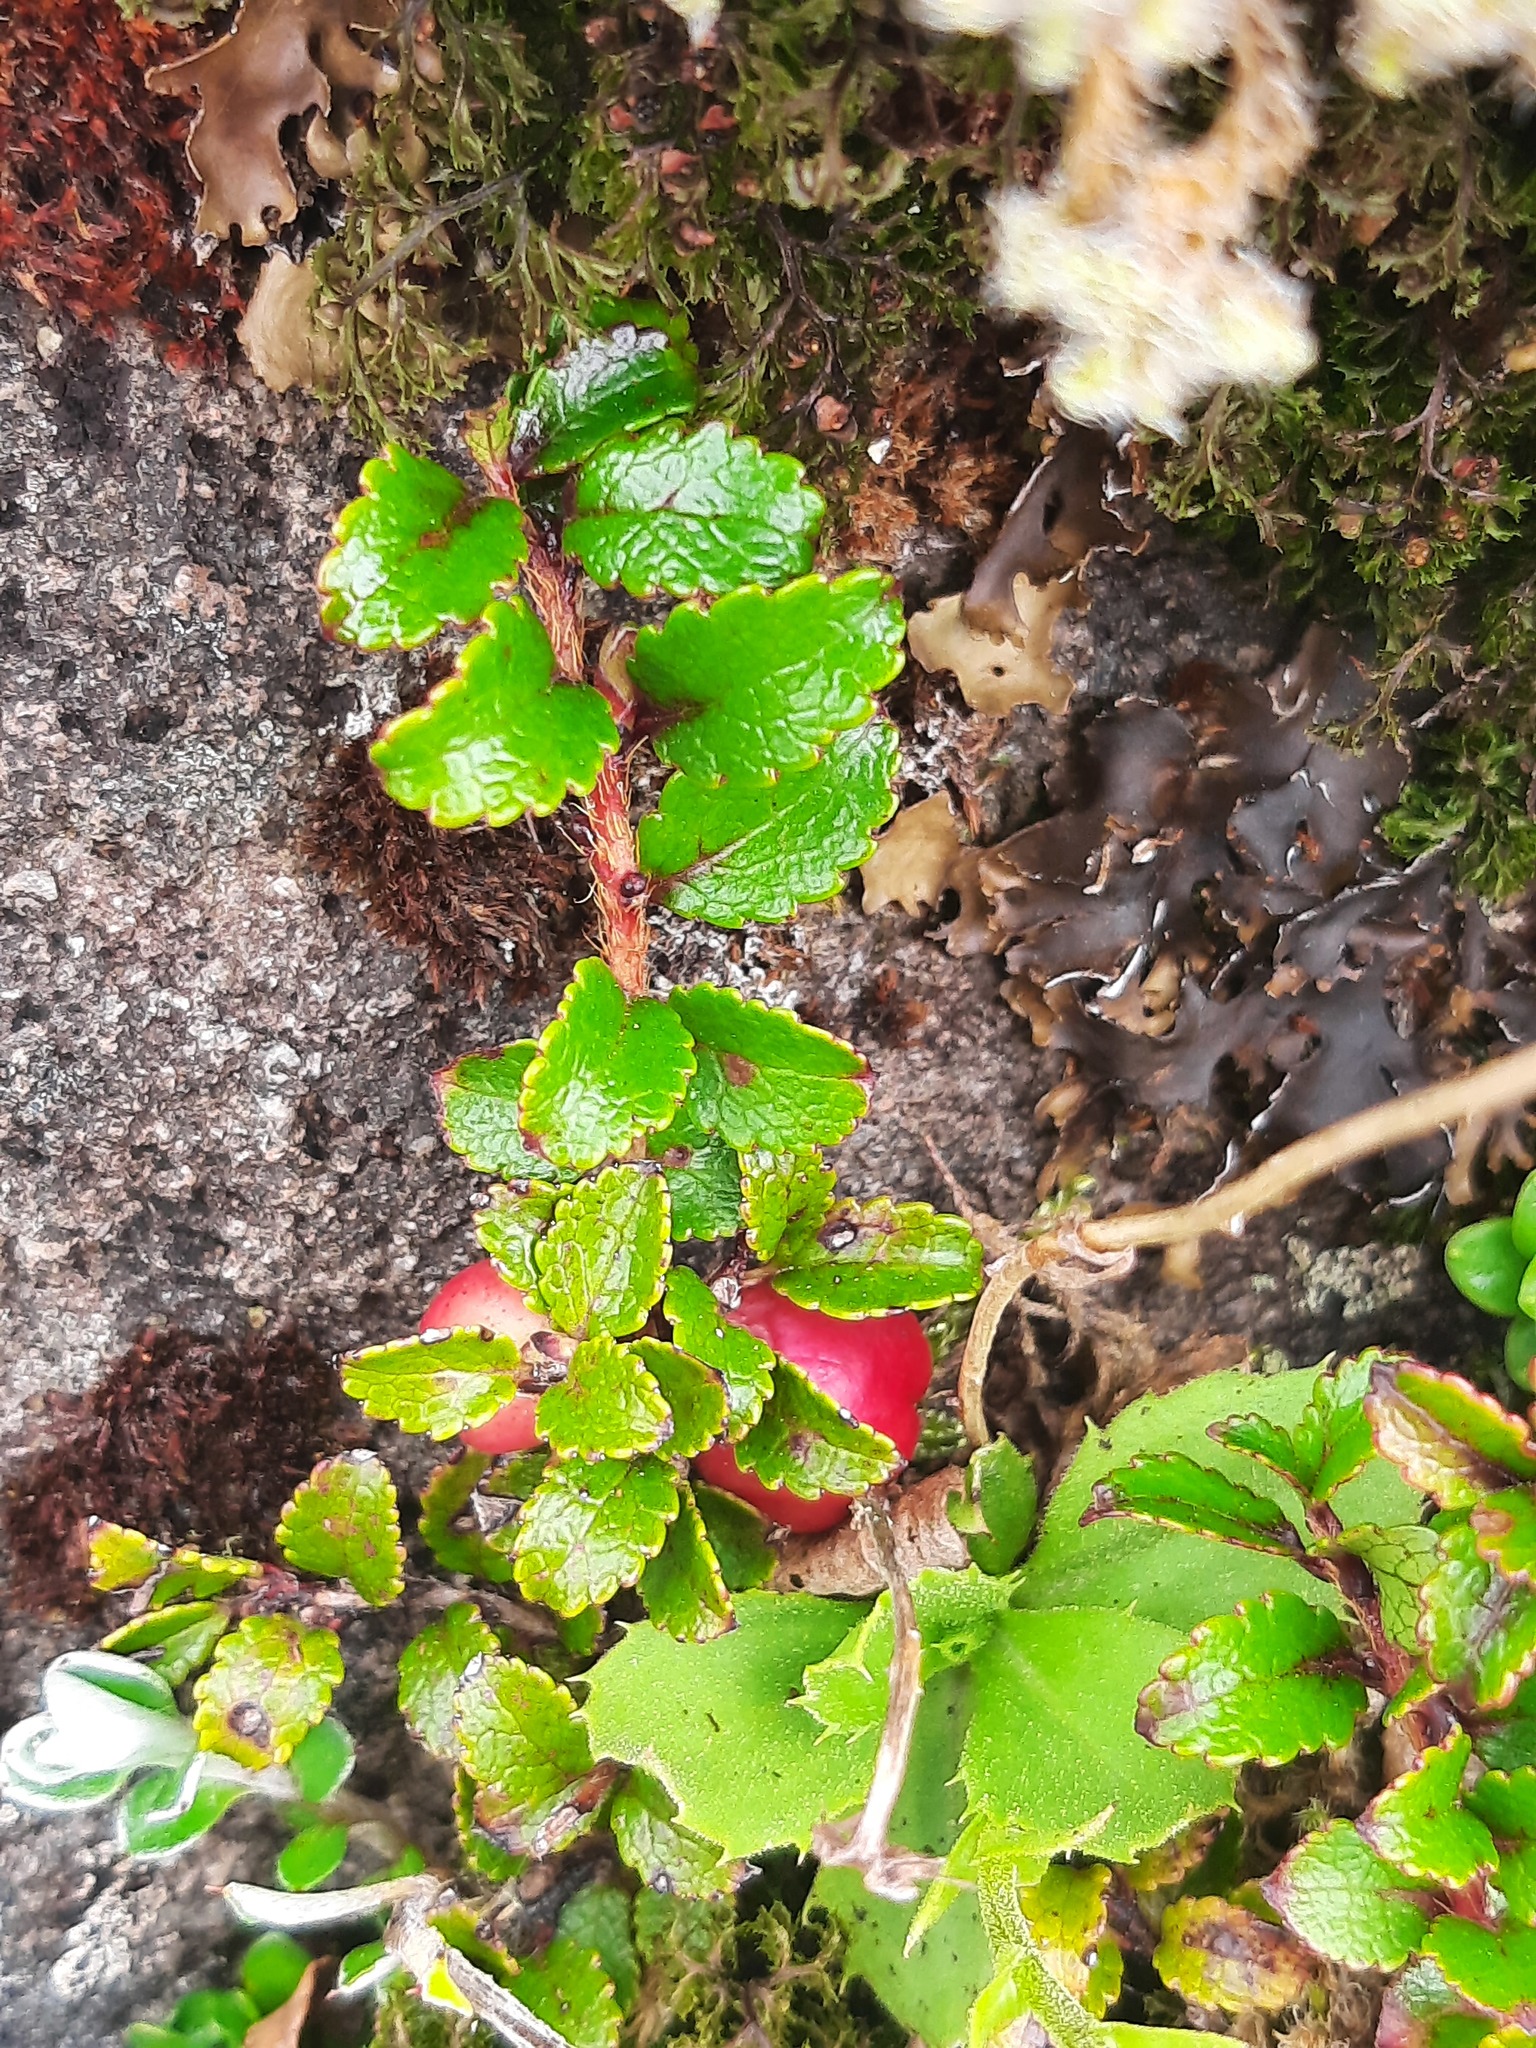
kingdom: Plantae
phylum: Tracheophyta
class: Magnoliopsida
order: Ericales
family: Ericaceae
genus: Gaultheria
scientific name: Gaultheria depressa
